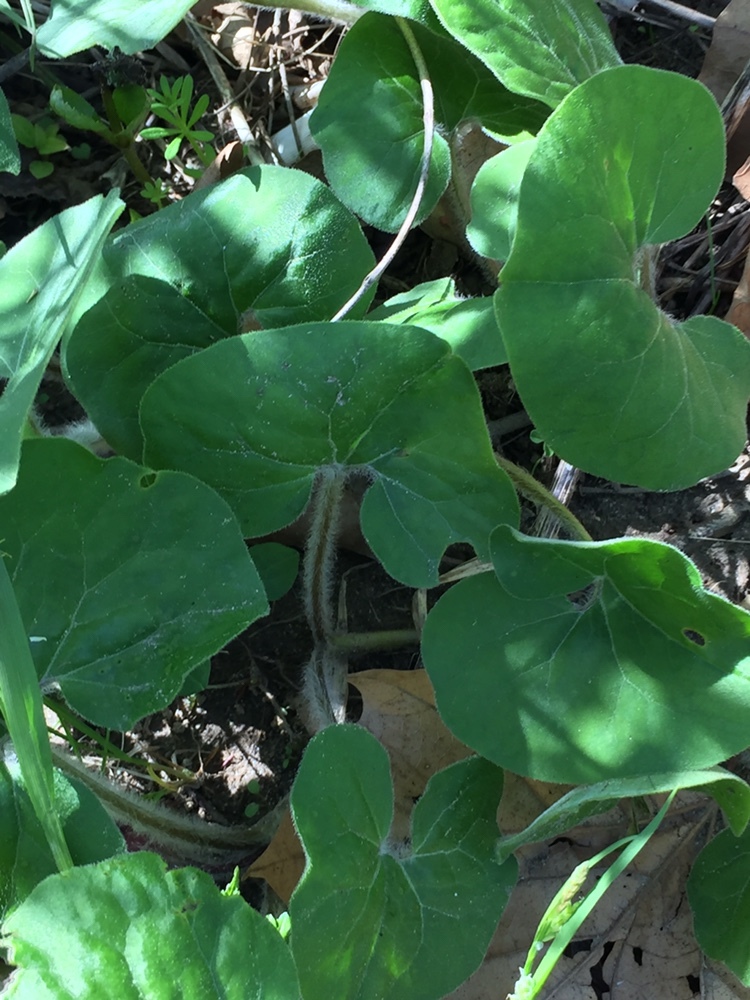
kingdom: Plantae
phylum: Tracheophyta
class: Magnoliopsida
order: Piperales
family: Aristolochiaceae
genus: Asarum
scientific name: Asarum canadense
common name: Wild ginger
